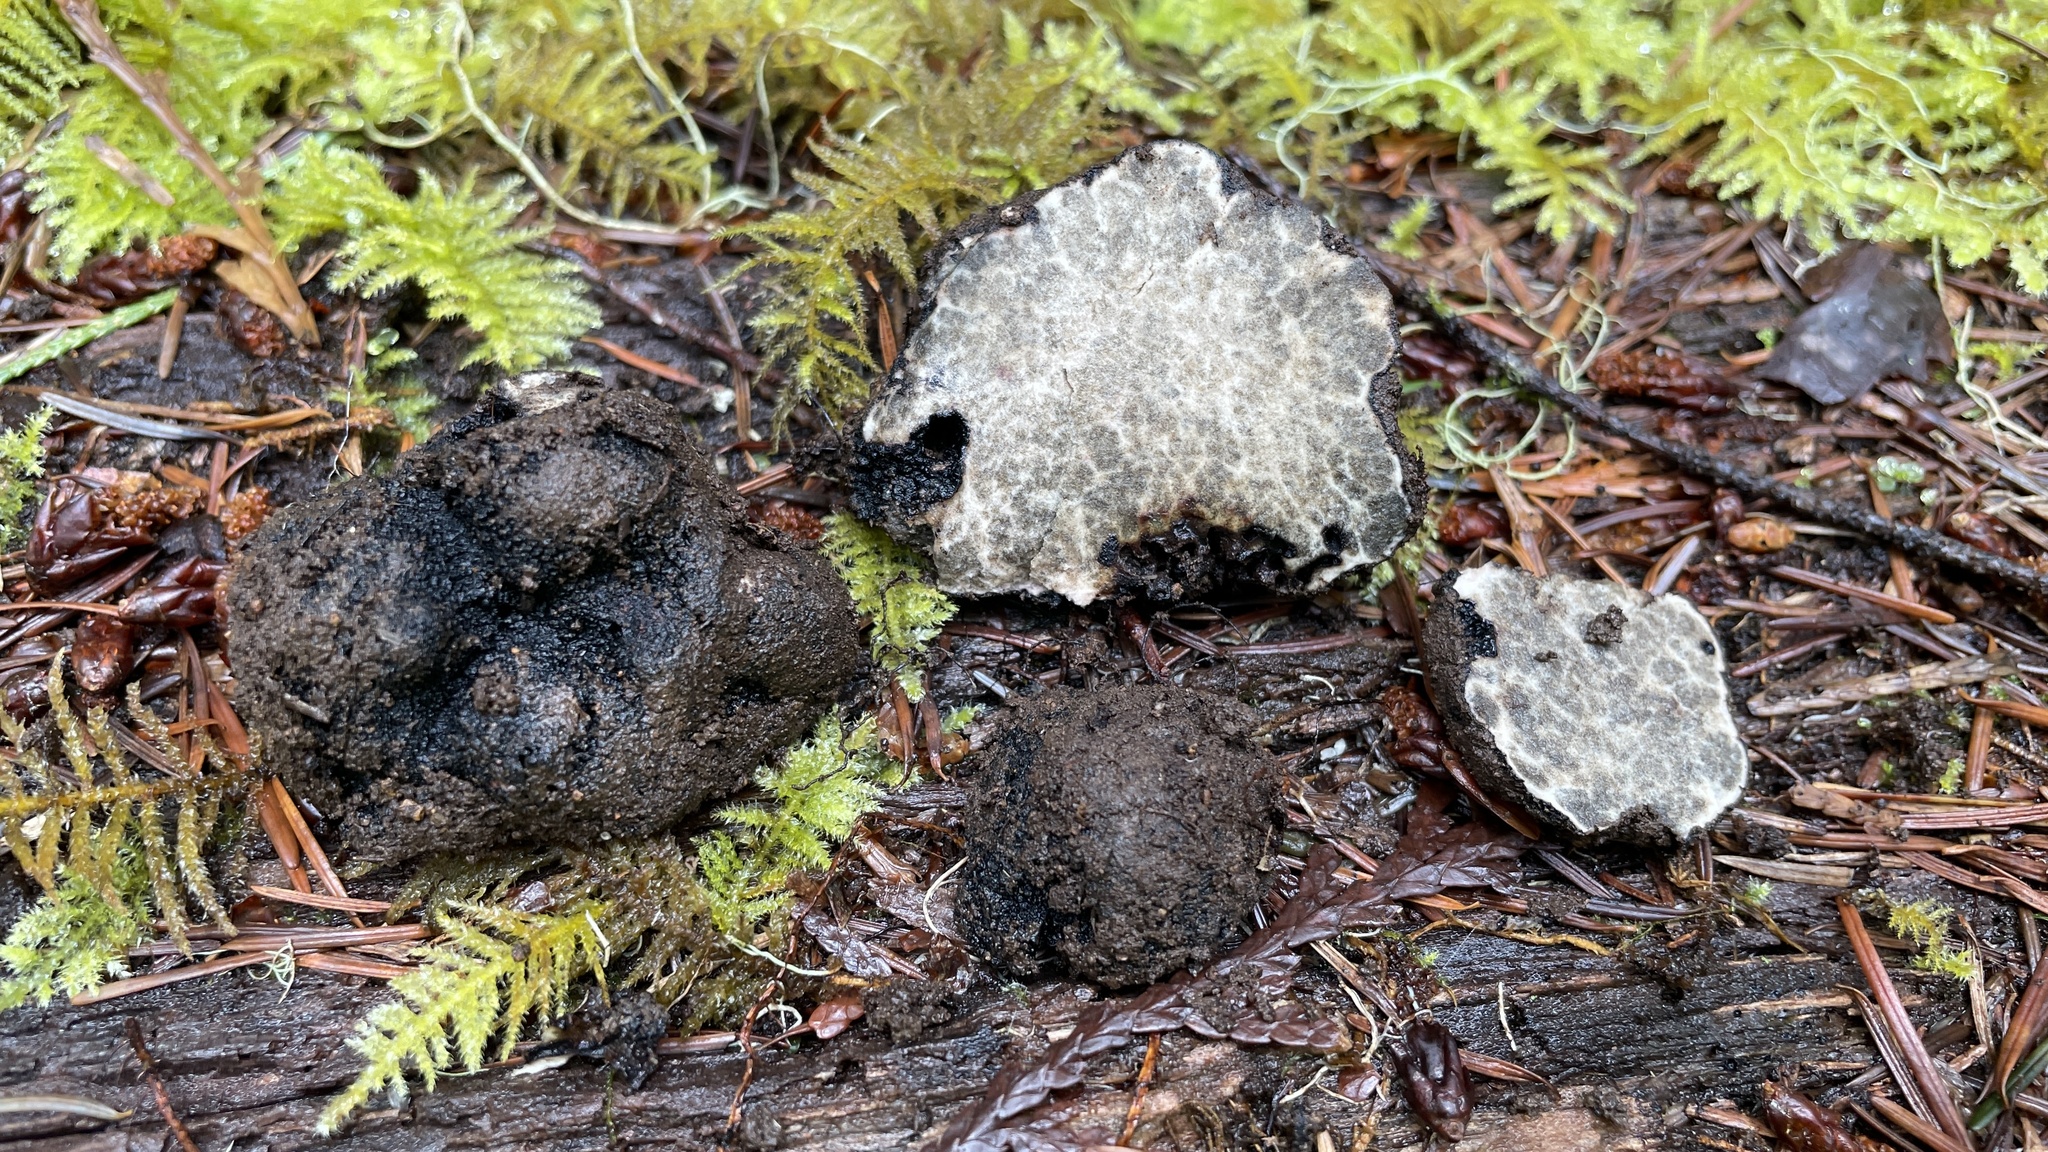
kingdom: Fungi
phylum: Ascomycota
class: Pezizomycetes
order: Pezizales
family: Morchellaceae
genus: Leucangium
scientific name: Leucangium carthusianum
